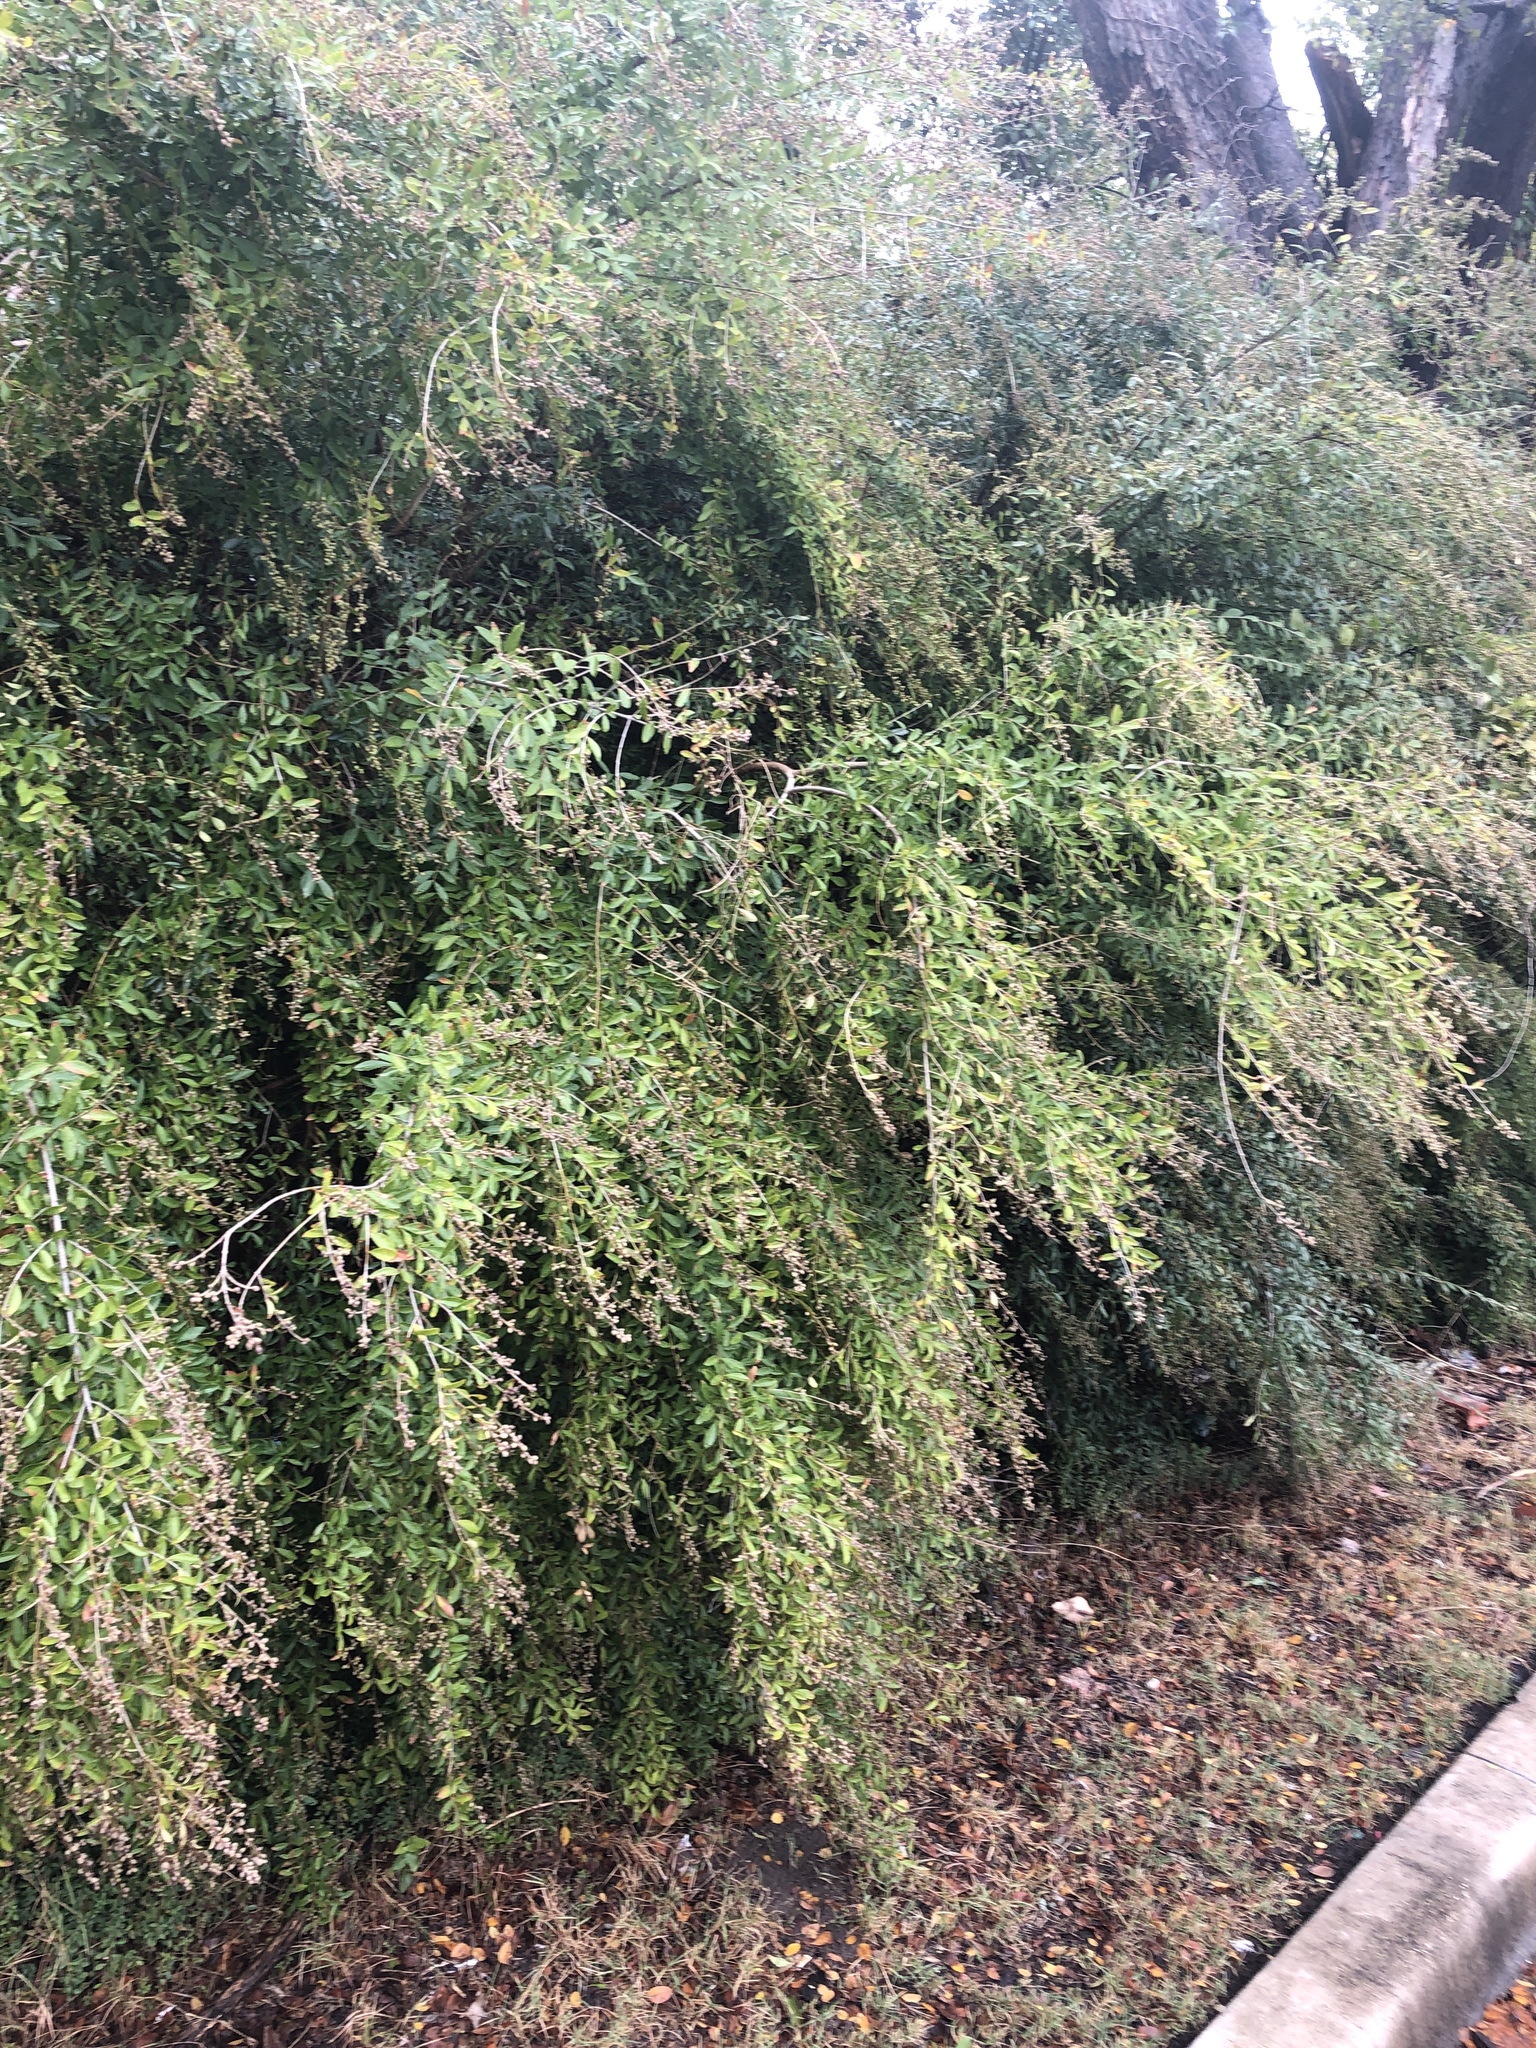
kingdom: Plantae
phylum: Tracheophyta
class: Magnoliopsida
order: Lamiales
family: Oleaceae
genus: Ligustrum
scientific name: Ligustrum quihoui
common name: Waxyleaf privet
